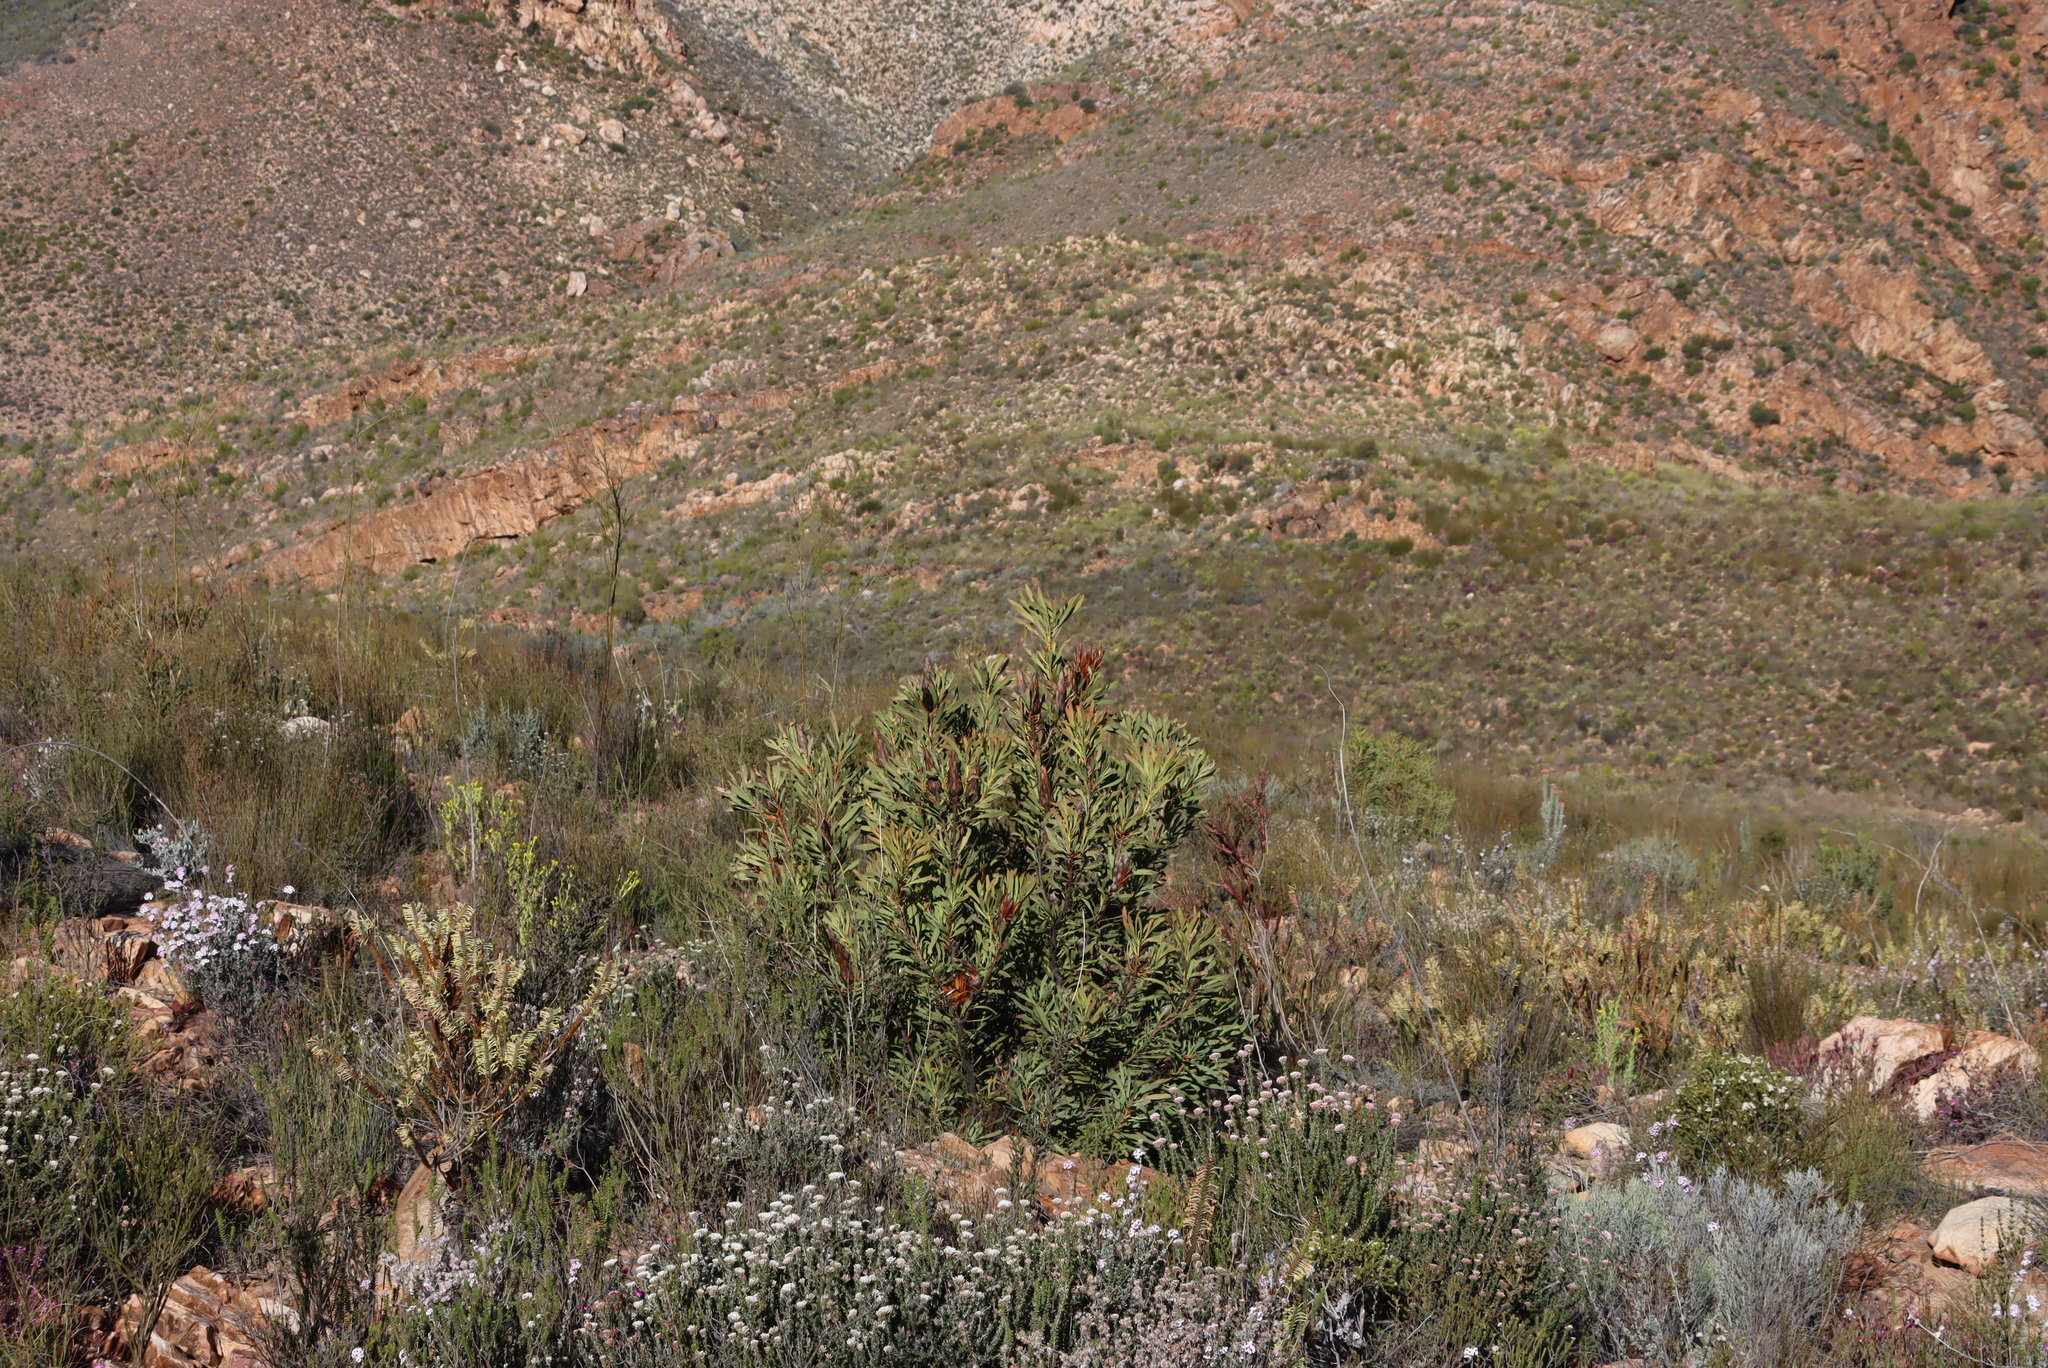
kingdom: Plantae
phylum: Tracheophyta
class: Magnoliopsida
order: Proteales
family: Proteaceae
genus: Protea
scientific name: Protea repens
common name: Sugarbush
